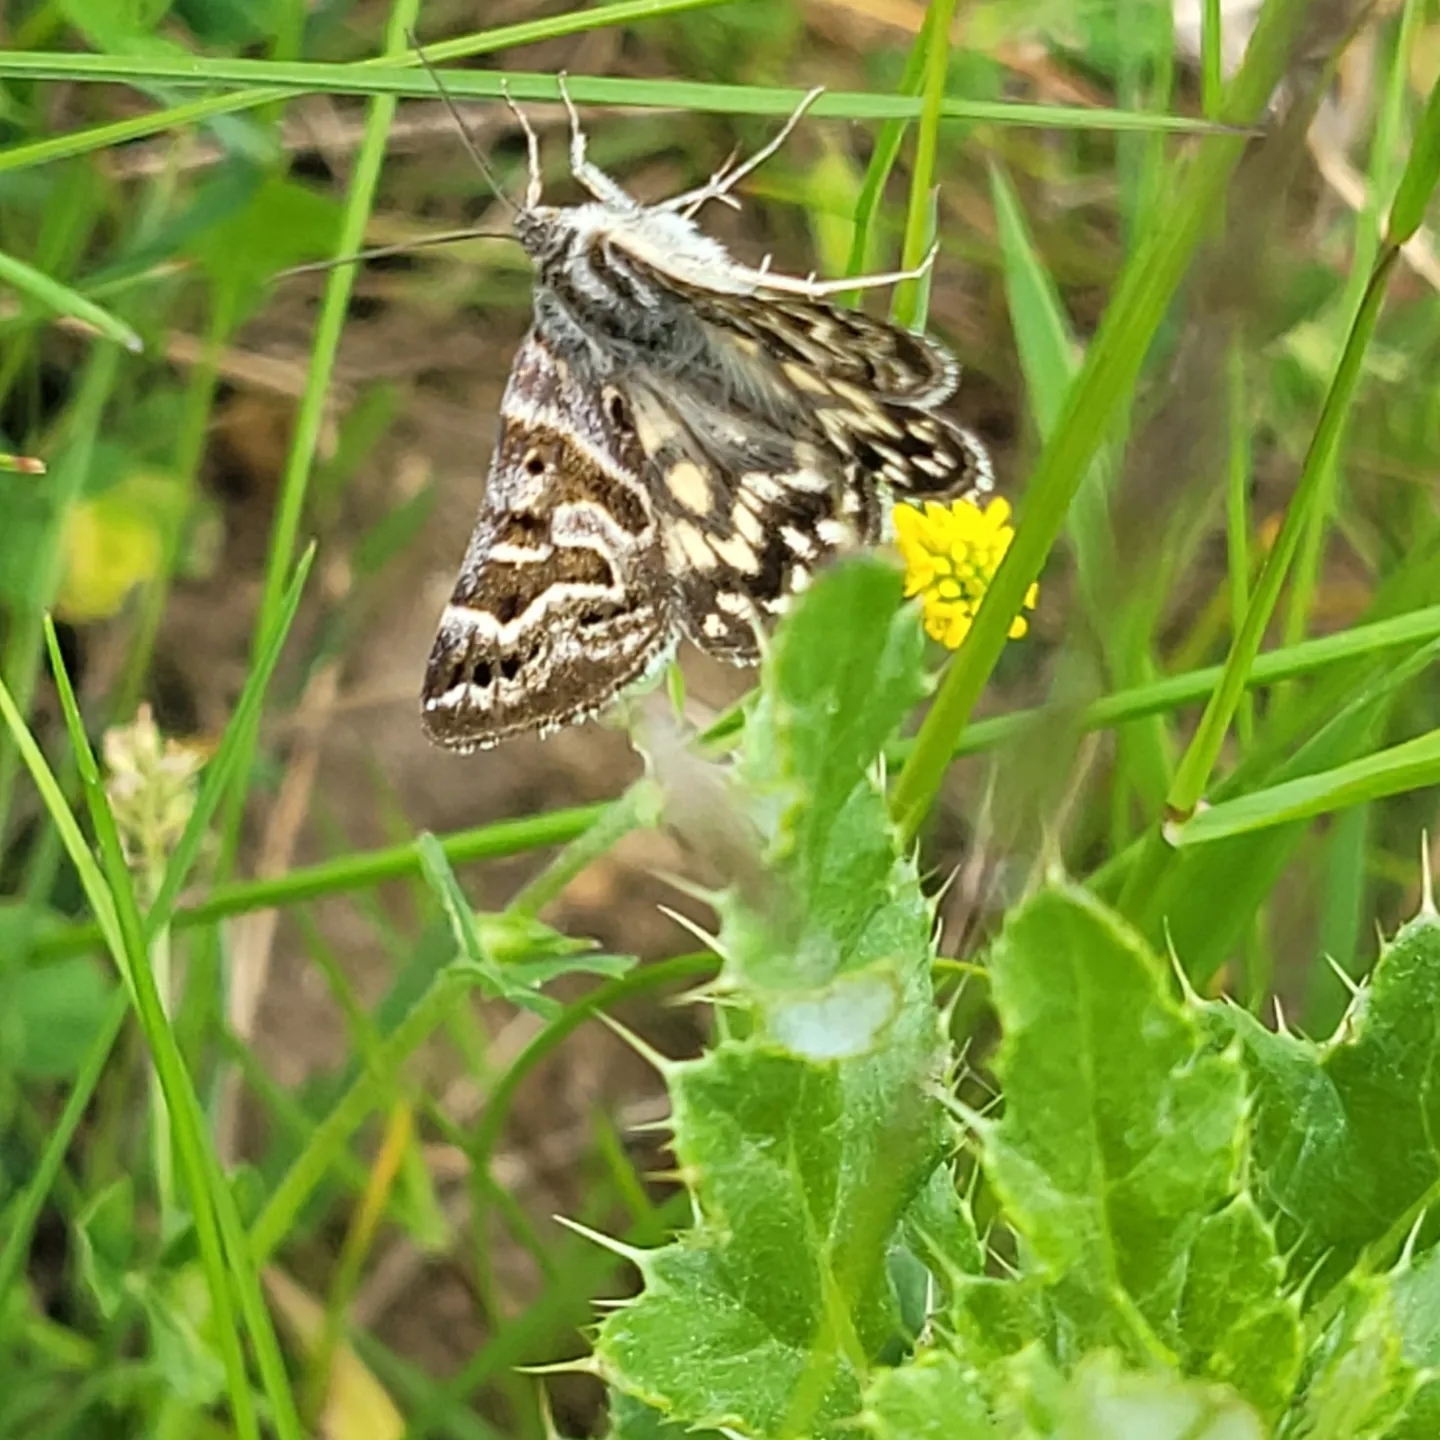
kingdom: Animalia
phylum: Arthropoda
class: Insecta
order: Lepidoptera
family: Erebidae
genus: Callistege
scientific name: Callistege mi
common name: Mother shipton
